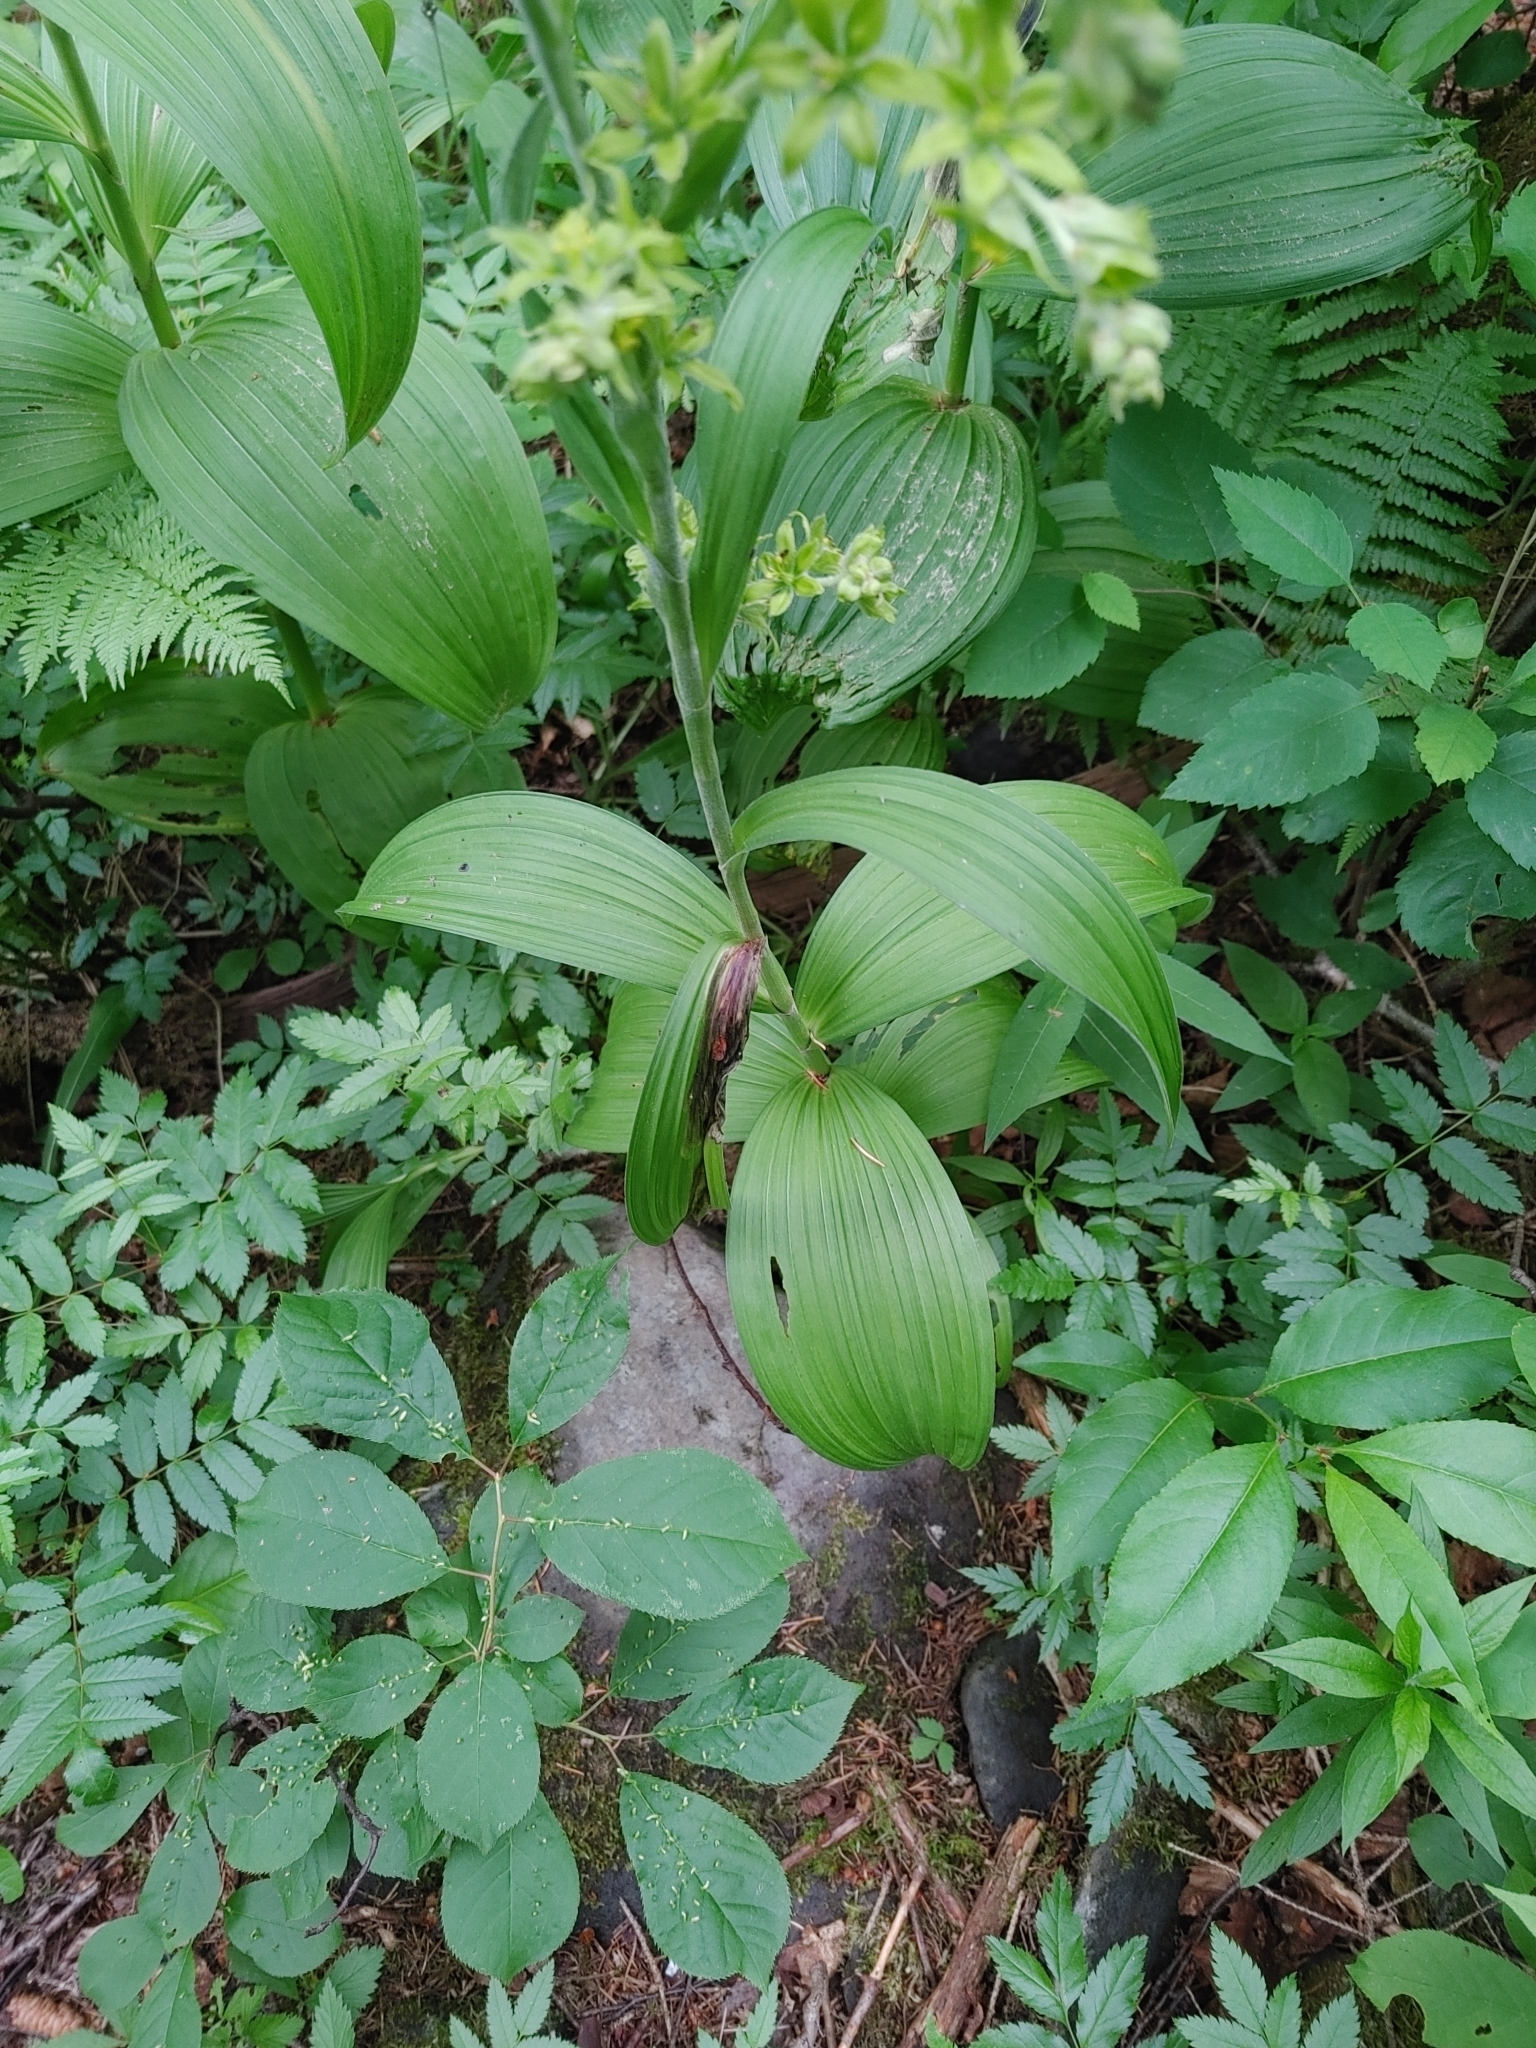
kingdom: Plantae
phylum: Tracheophyta
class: Liliopsida
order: Liliales
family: Melanthiaceae
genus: Veratrum
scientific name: Veratrum viride
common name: American false hellebore
